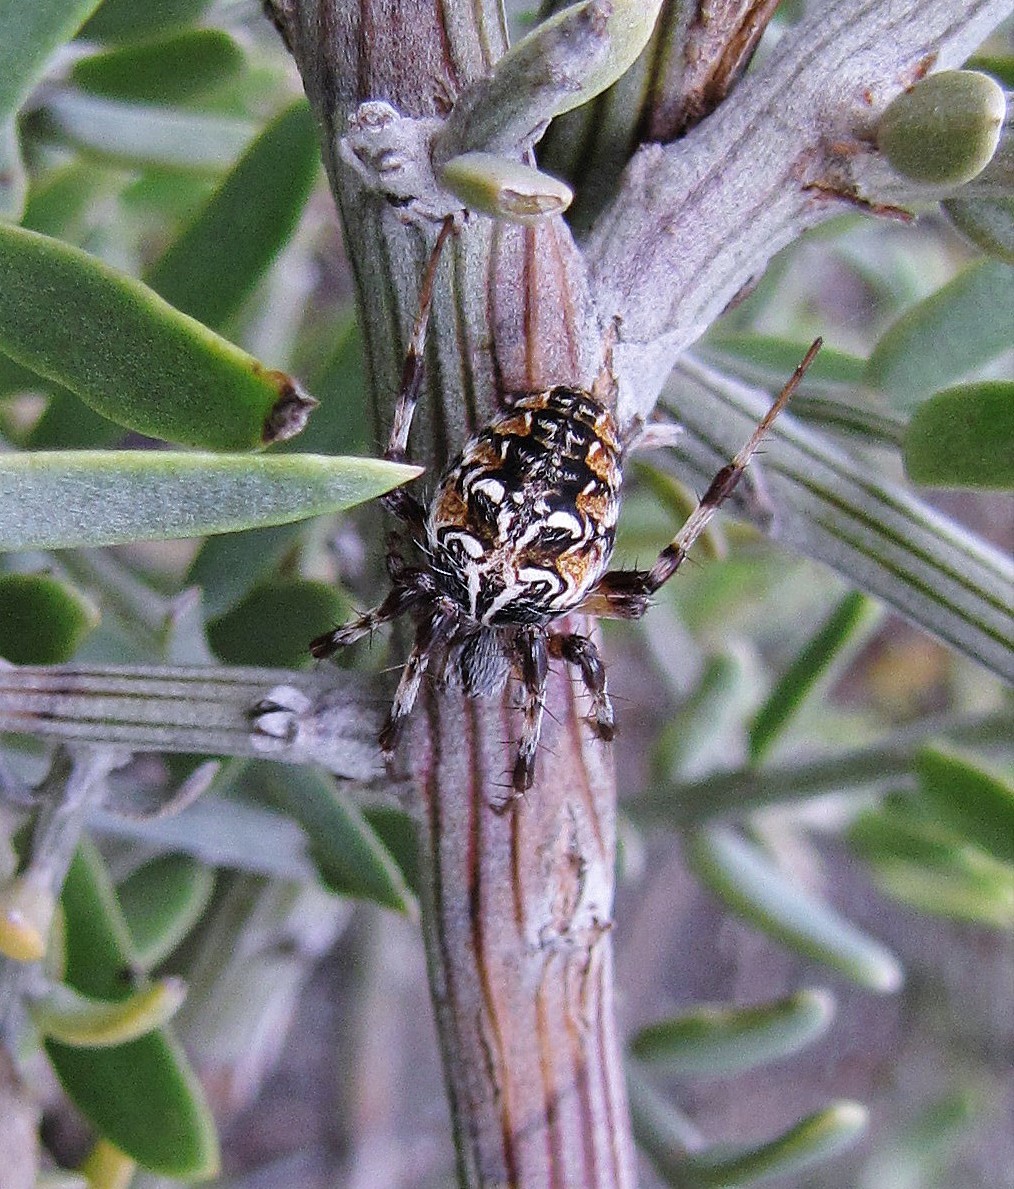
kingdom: Animalia
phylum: Arthropoda
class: Arachnida
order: Araneae
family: Araneidae
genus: Metepeira
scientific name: Metepeira
